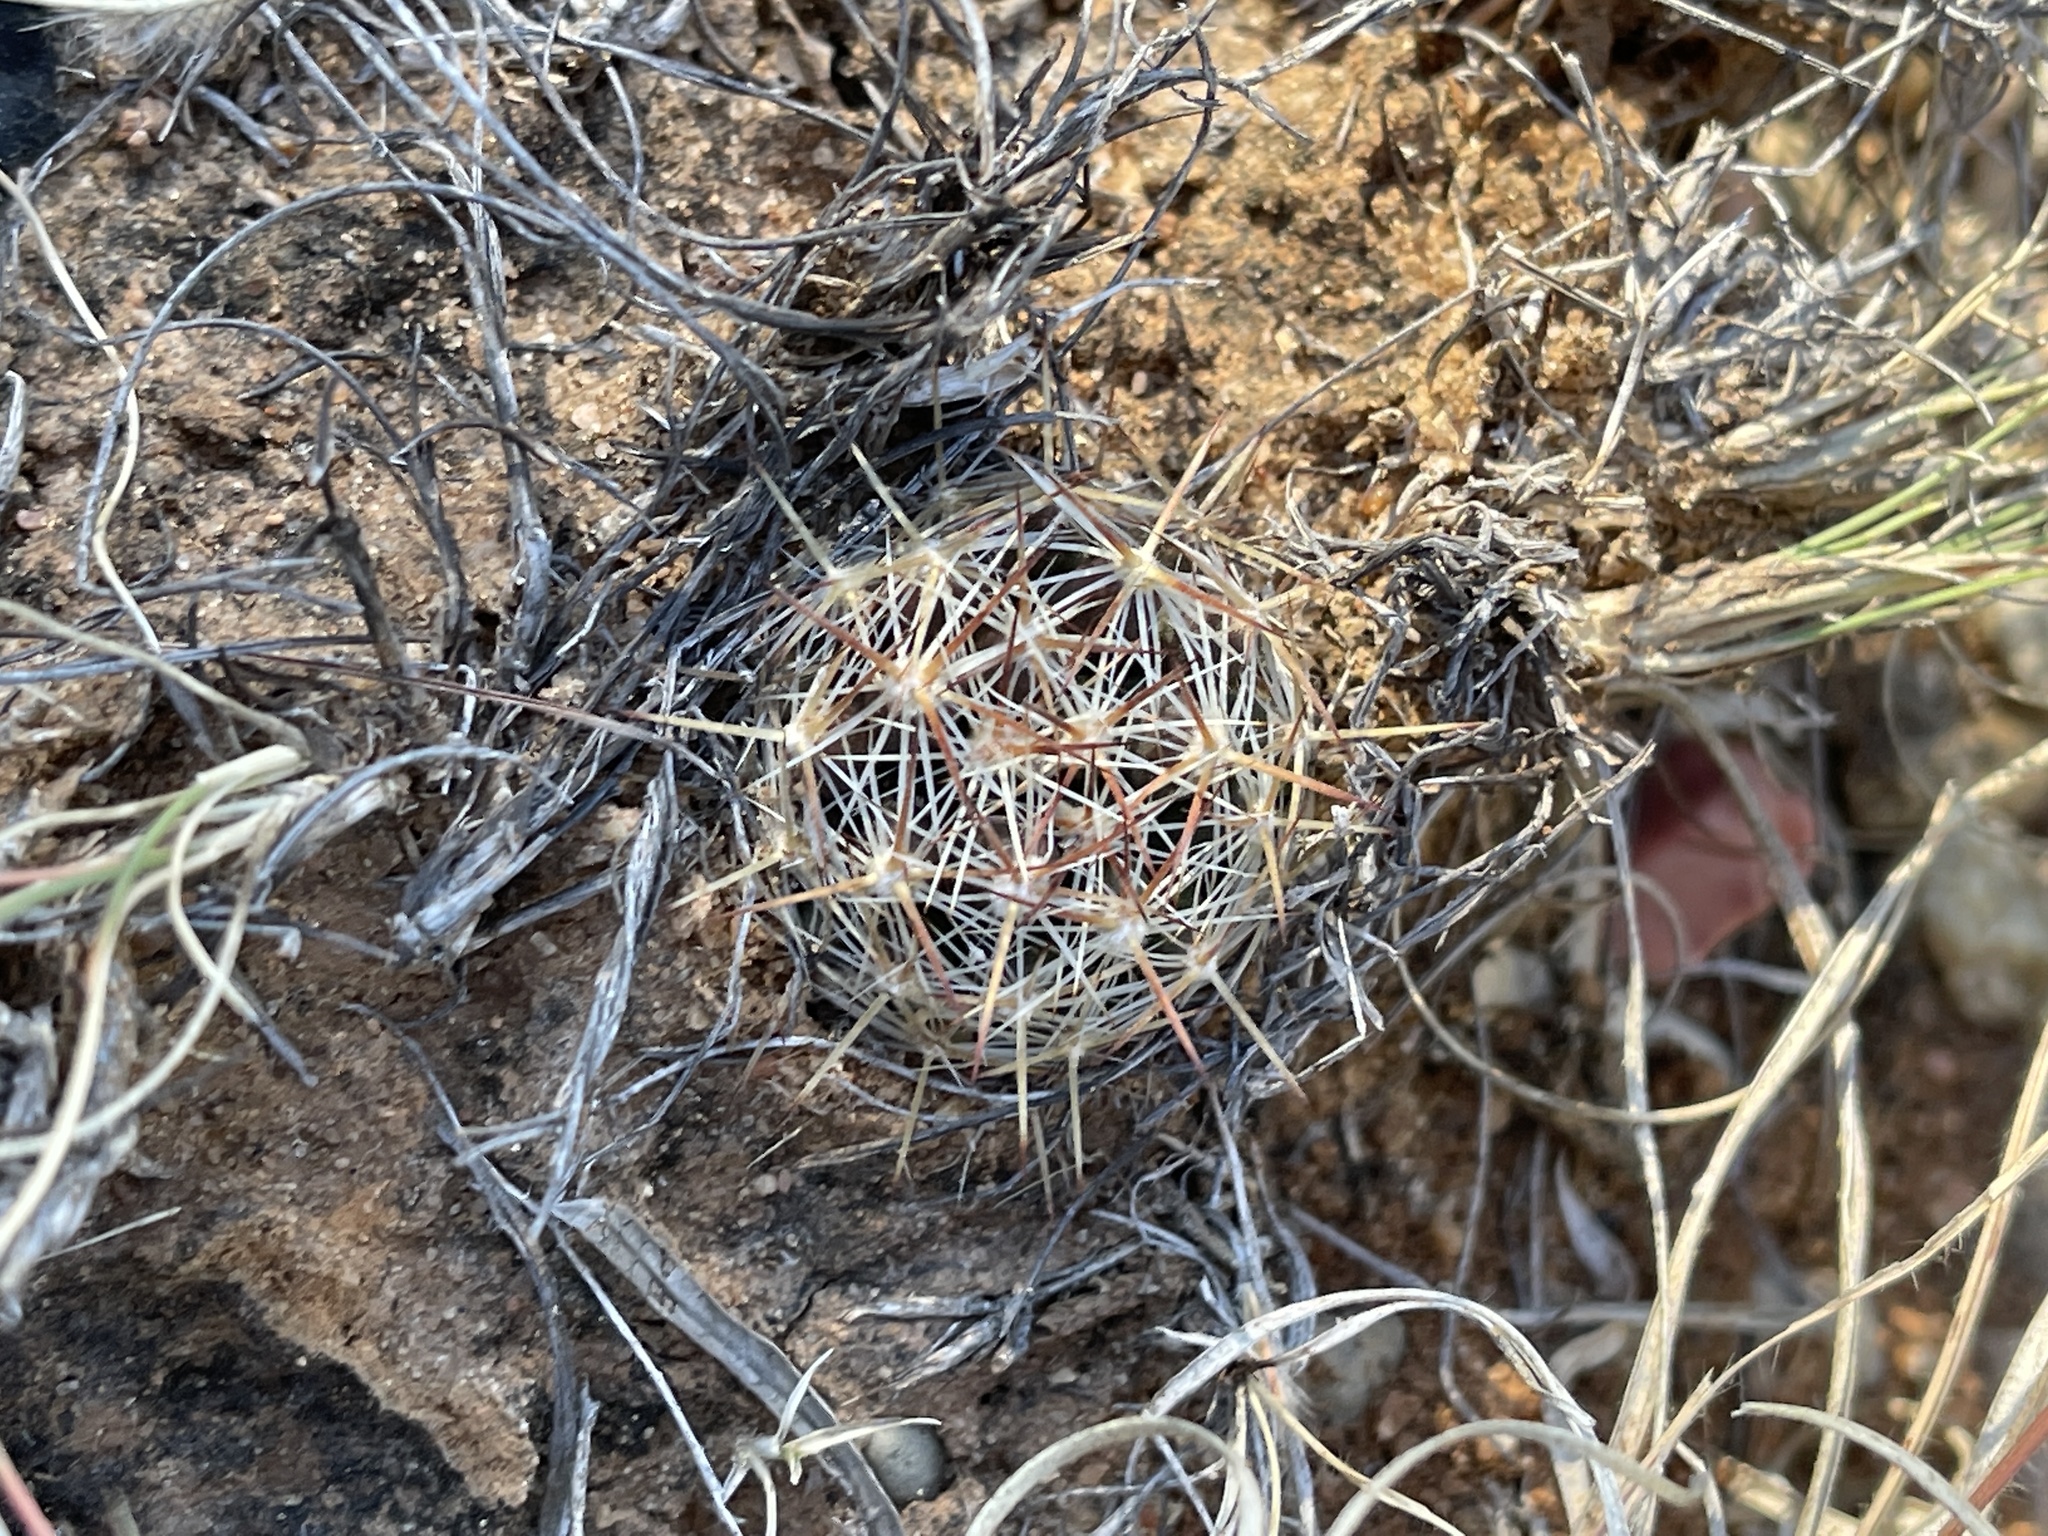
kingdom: Plantae
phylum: Tracheophyta
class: Magnoliopsida
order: Caryophyllales
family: Cactaceae
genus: Pelecyphora
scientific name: Pelecyphora vivipara
